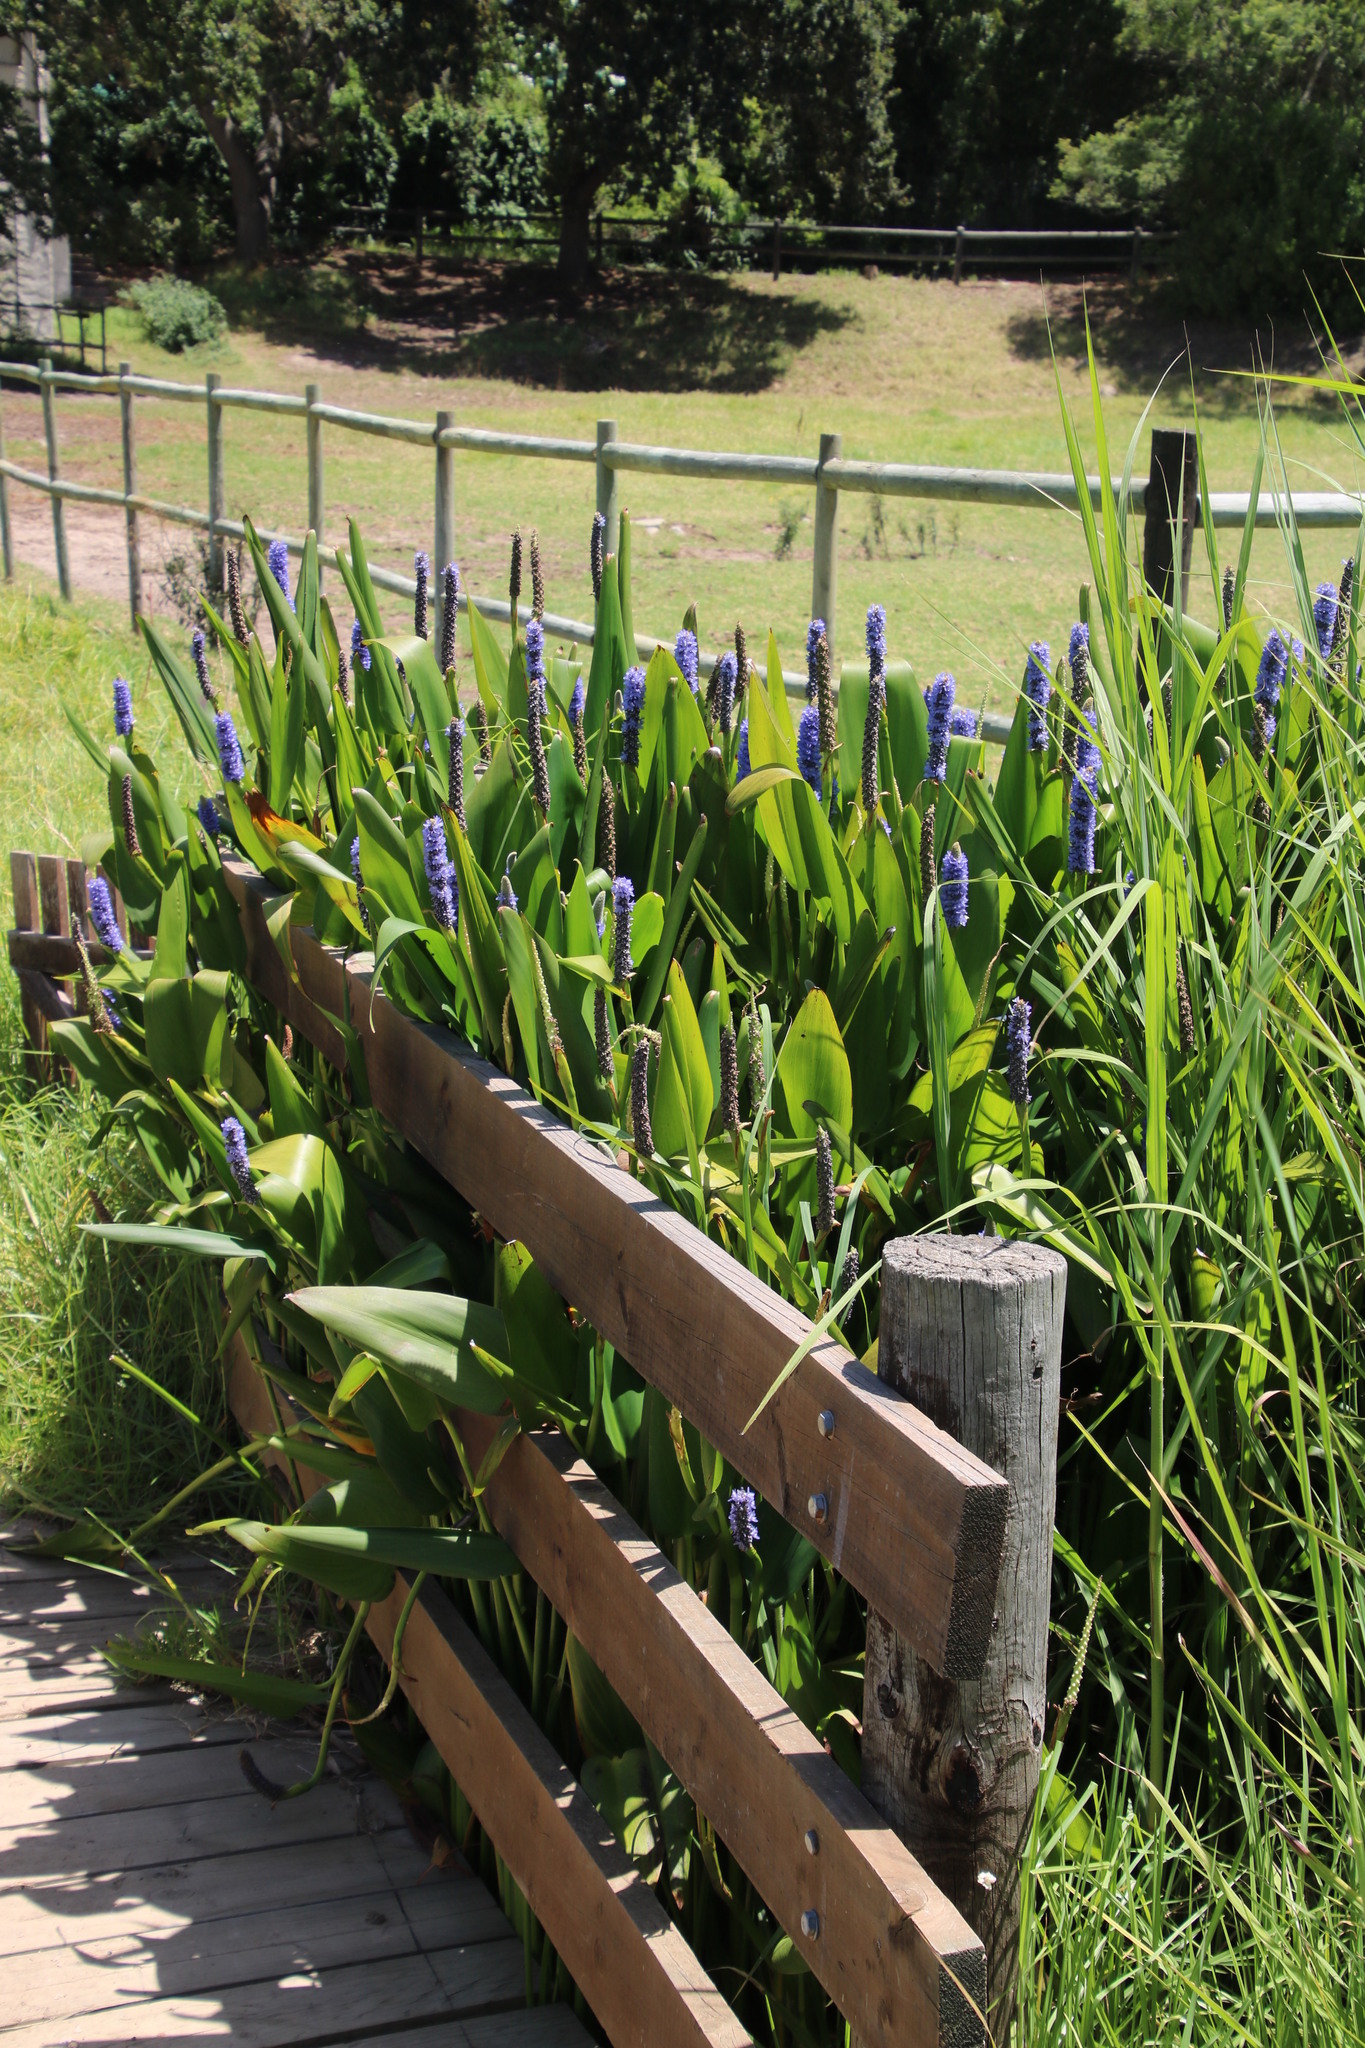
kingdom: Plantae
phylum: Tracheophyta
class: Liliopsida
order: Commelinales
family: Pontederiaceae
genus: Pontederia
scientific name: Pontederia cordata
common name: Pickerelweed
